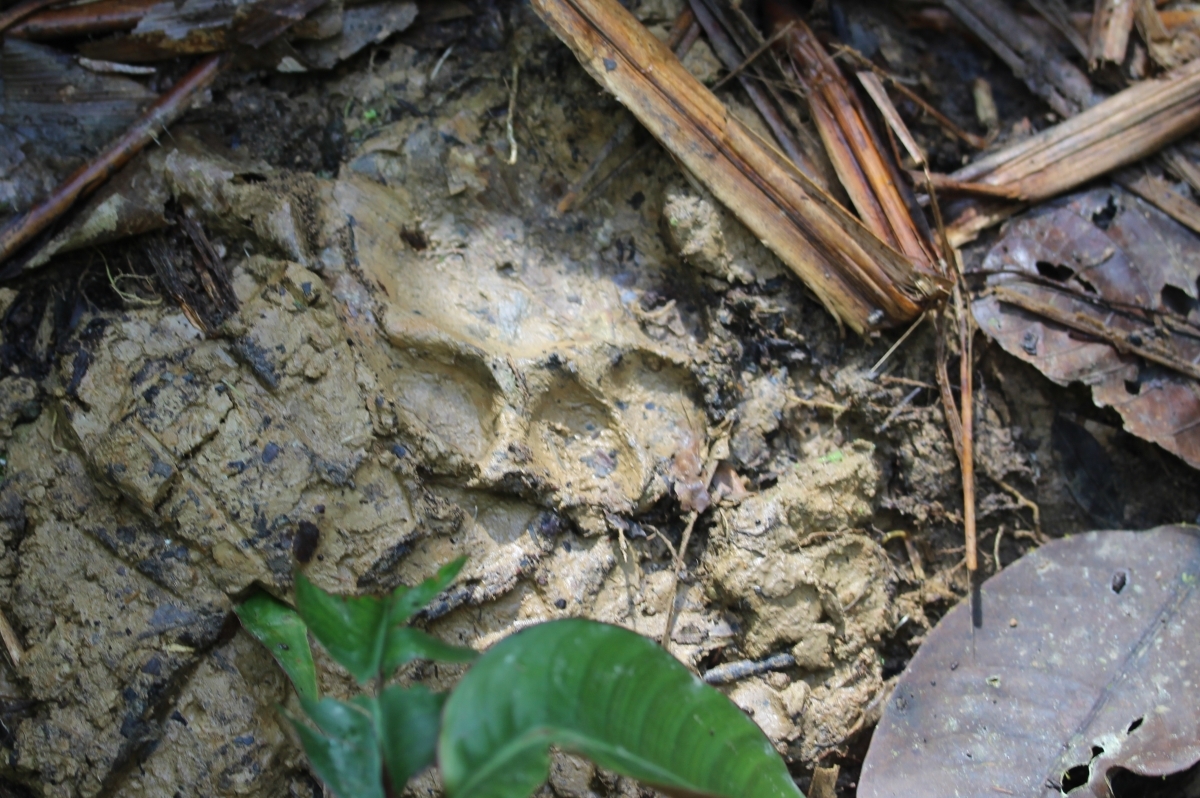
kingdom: Animalia
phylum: Chordata
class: Mammalia
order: Carnivora
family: Felidae
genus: Panthera
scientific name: Panthera onca
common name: Jaguar
